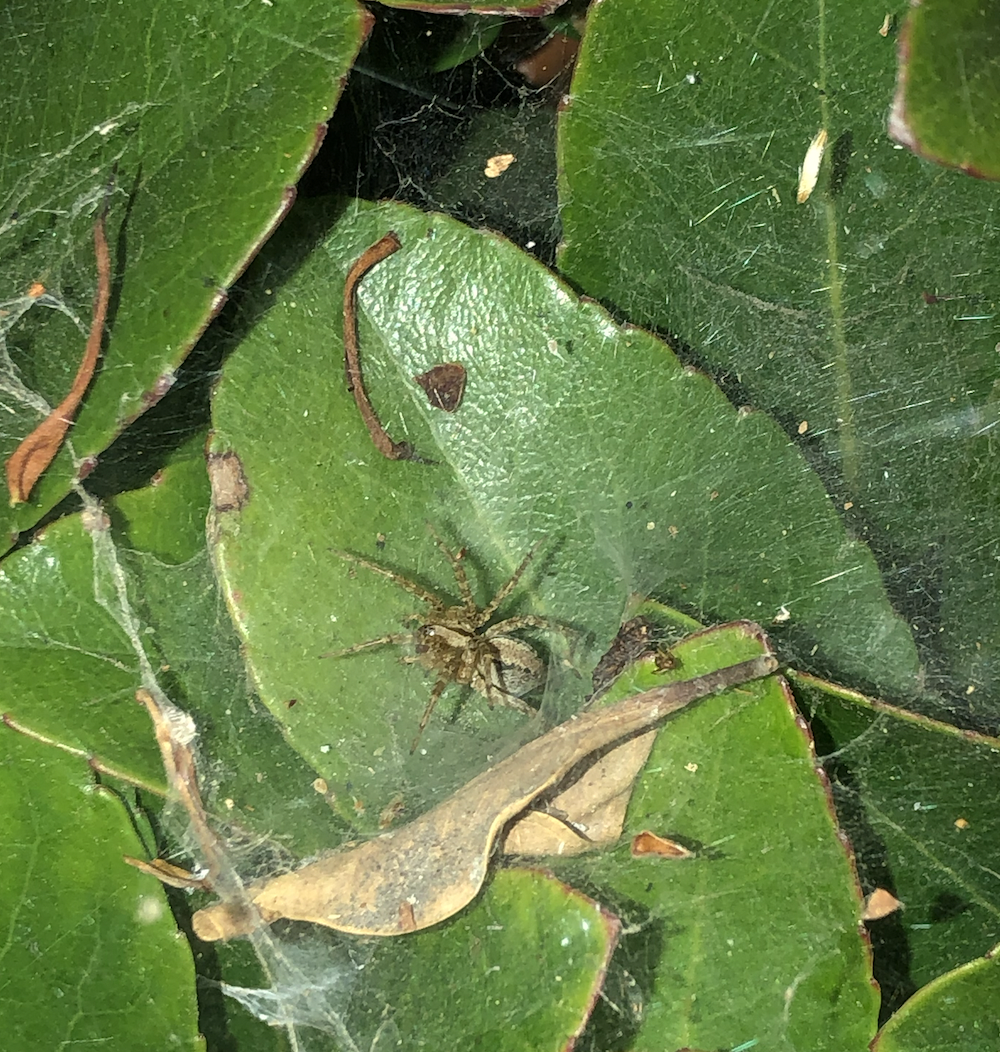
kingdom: Animalia
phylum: Arthropoda
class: Arachnida
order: Araneae
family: Agelenidae
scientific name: Agelenidae
